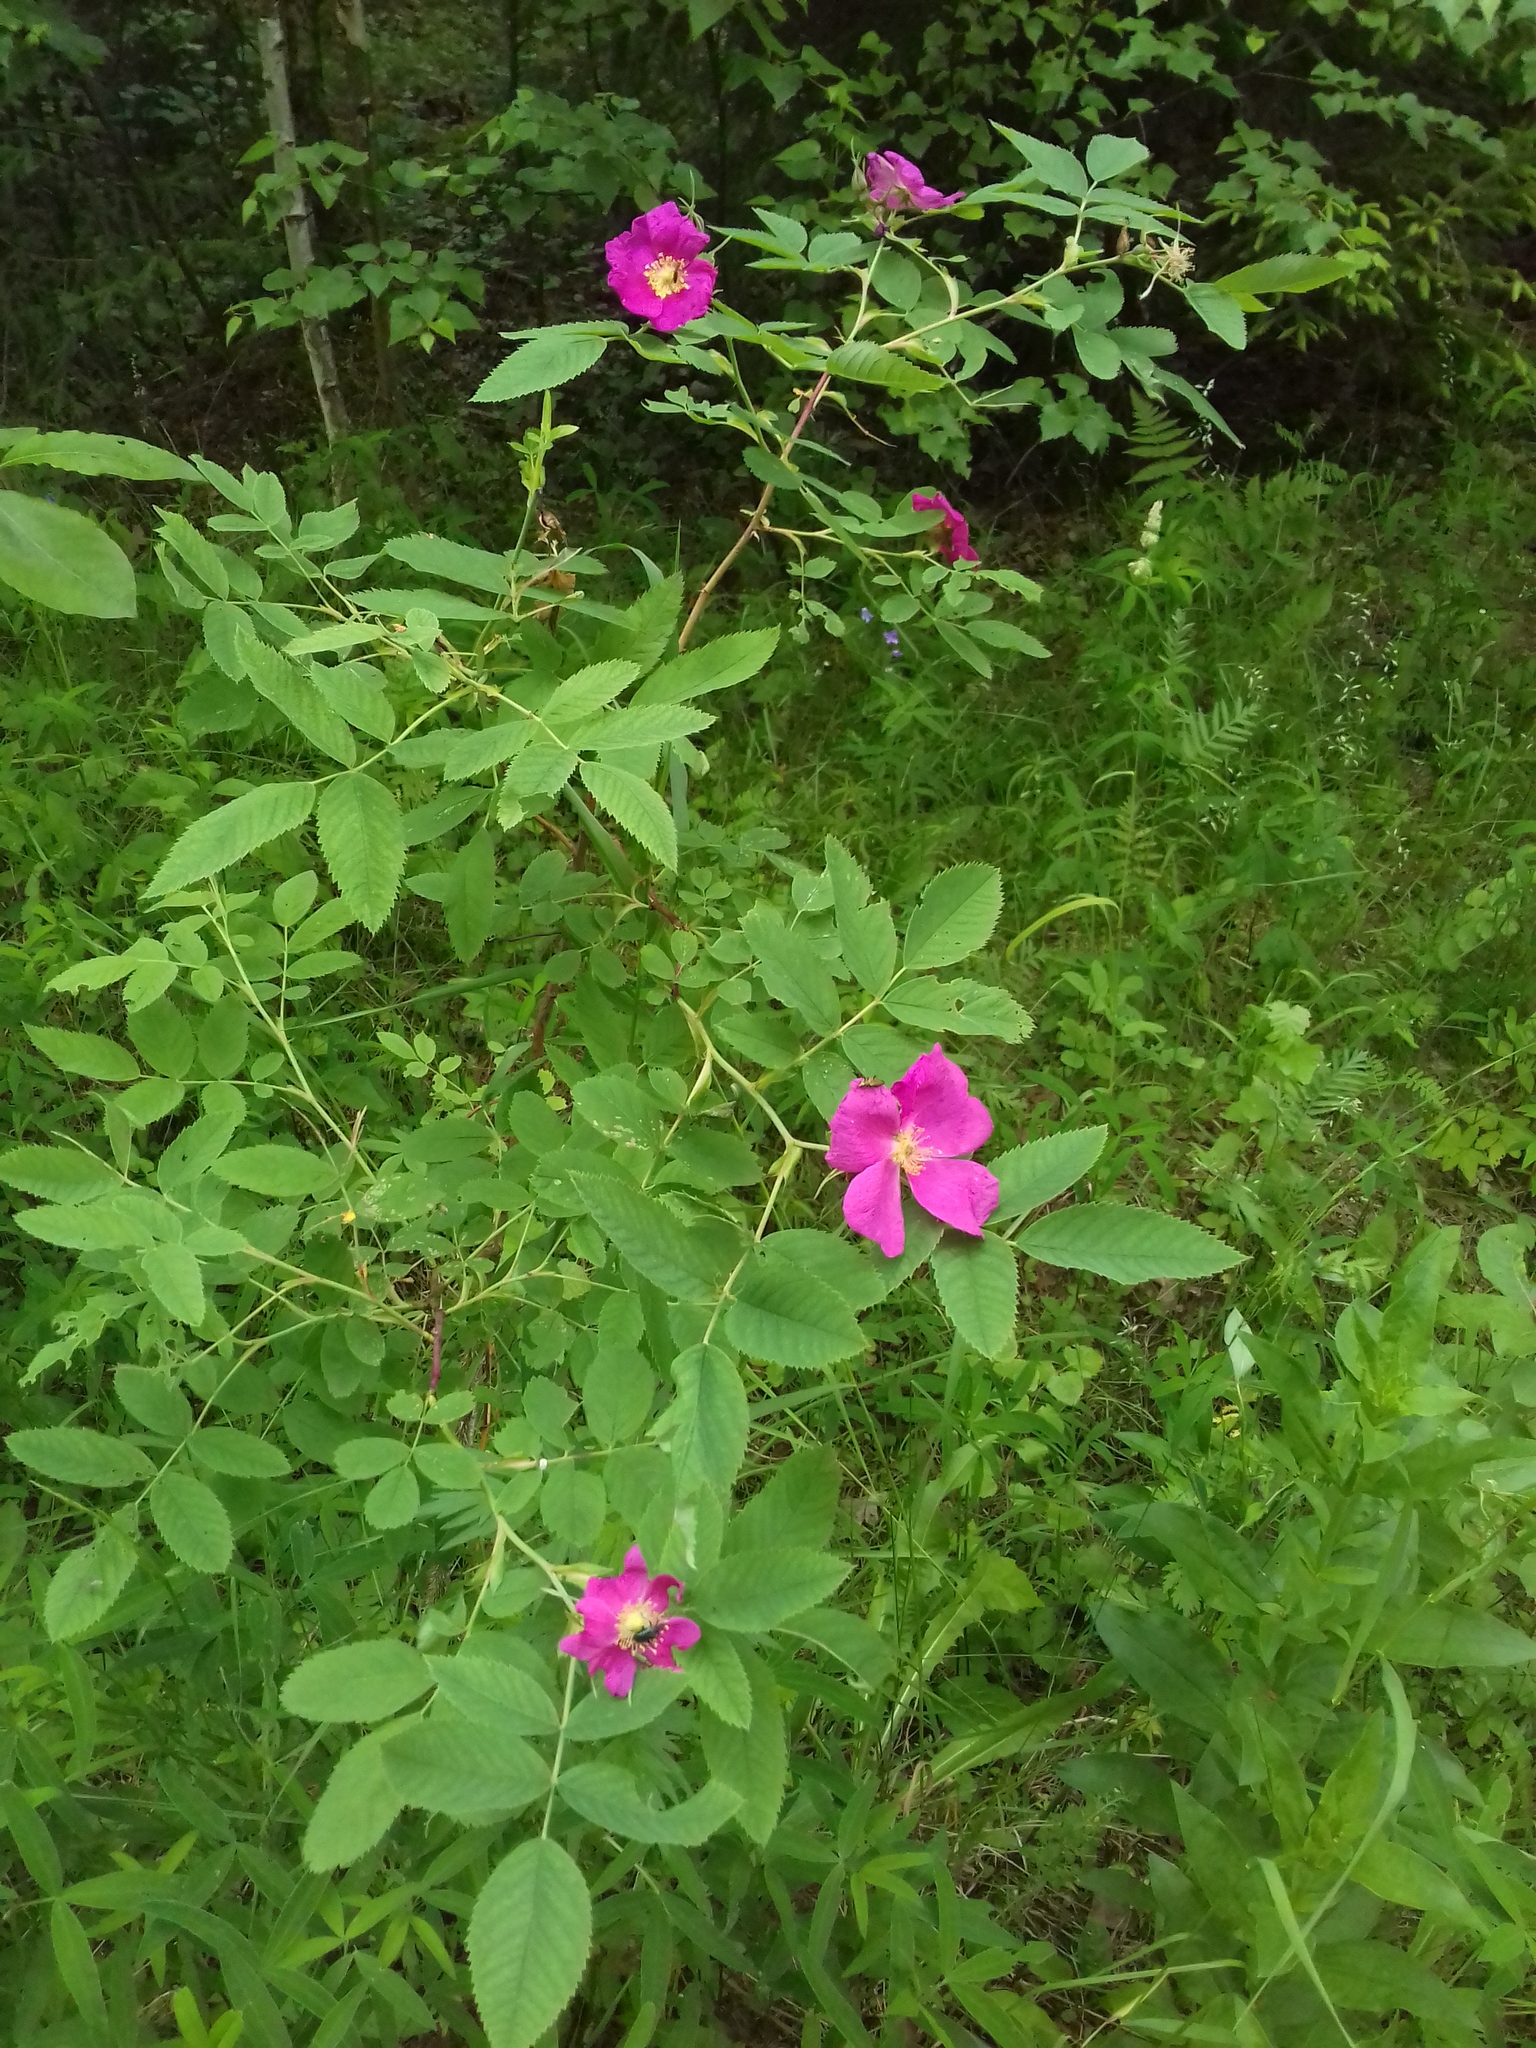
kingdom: Plantae
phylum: Tracheophyta
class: Magnoliopsida
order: Rosales
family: Rosaceae
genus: Rosa
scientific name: Rosa
